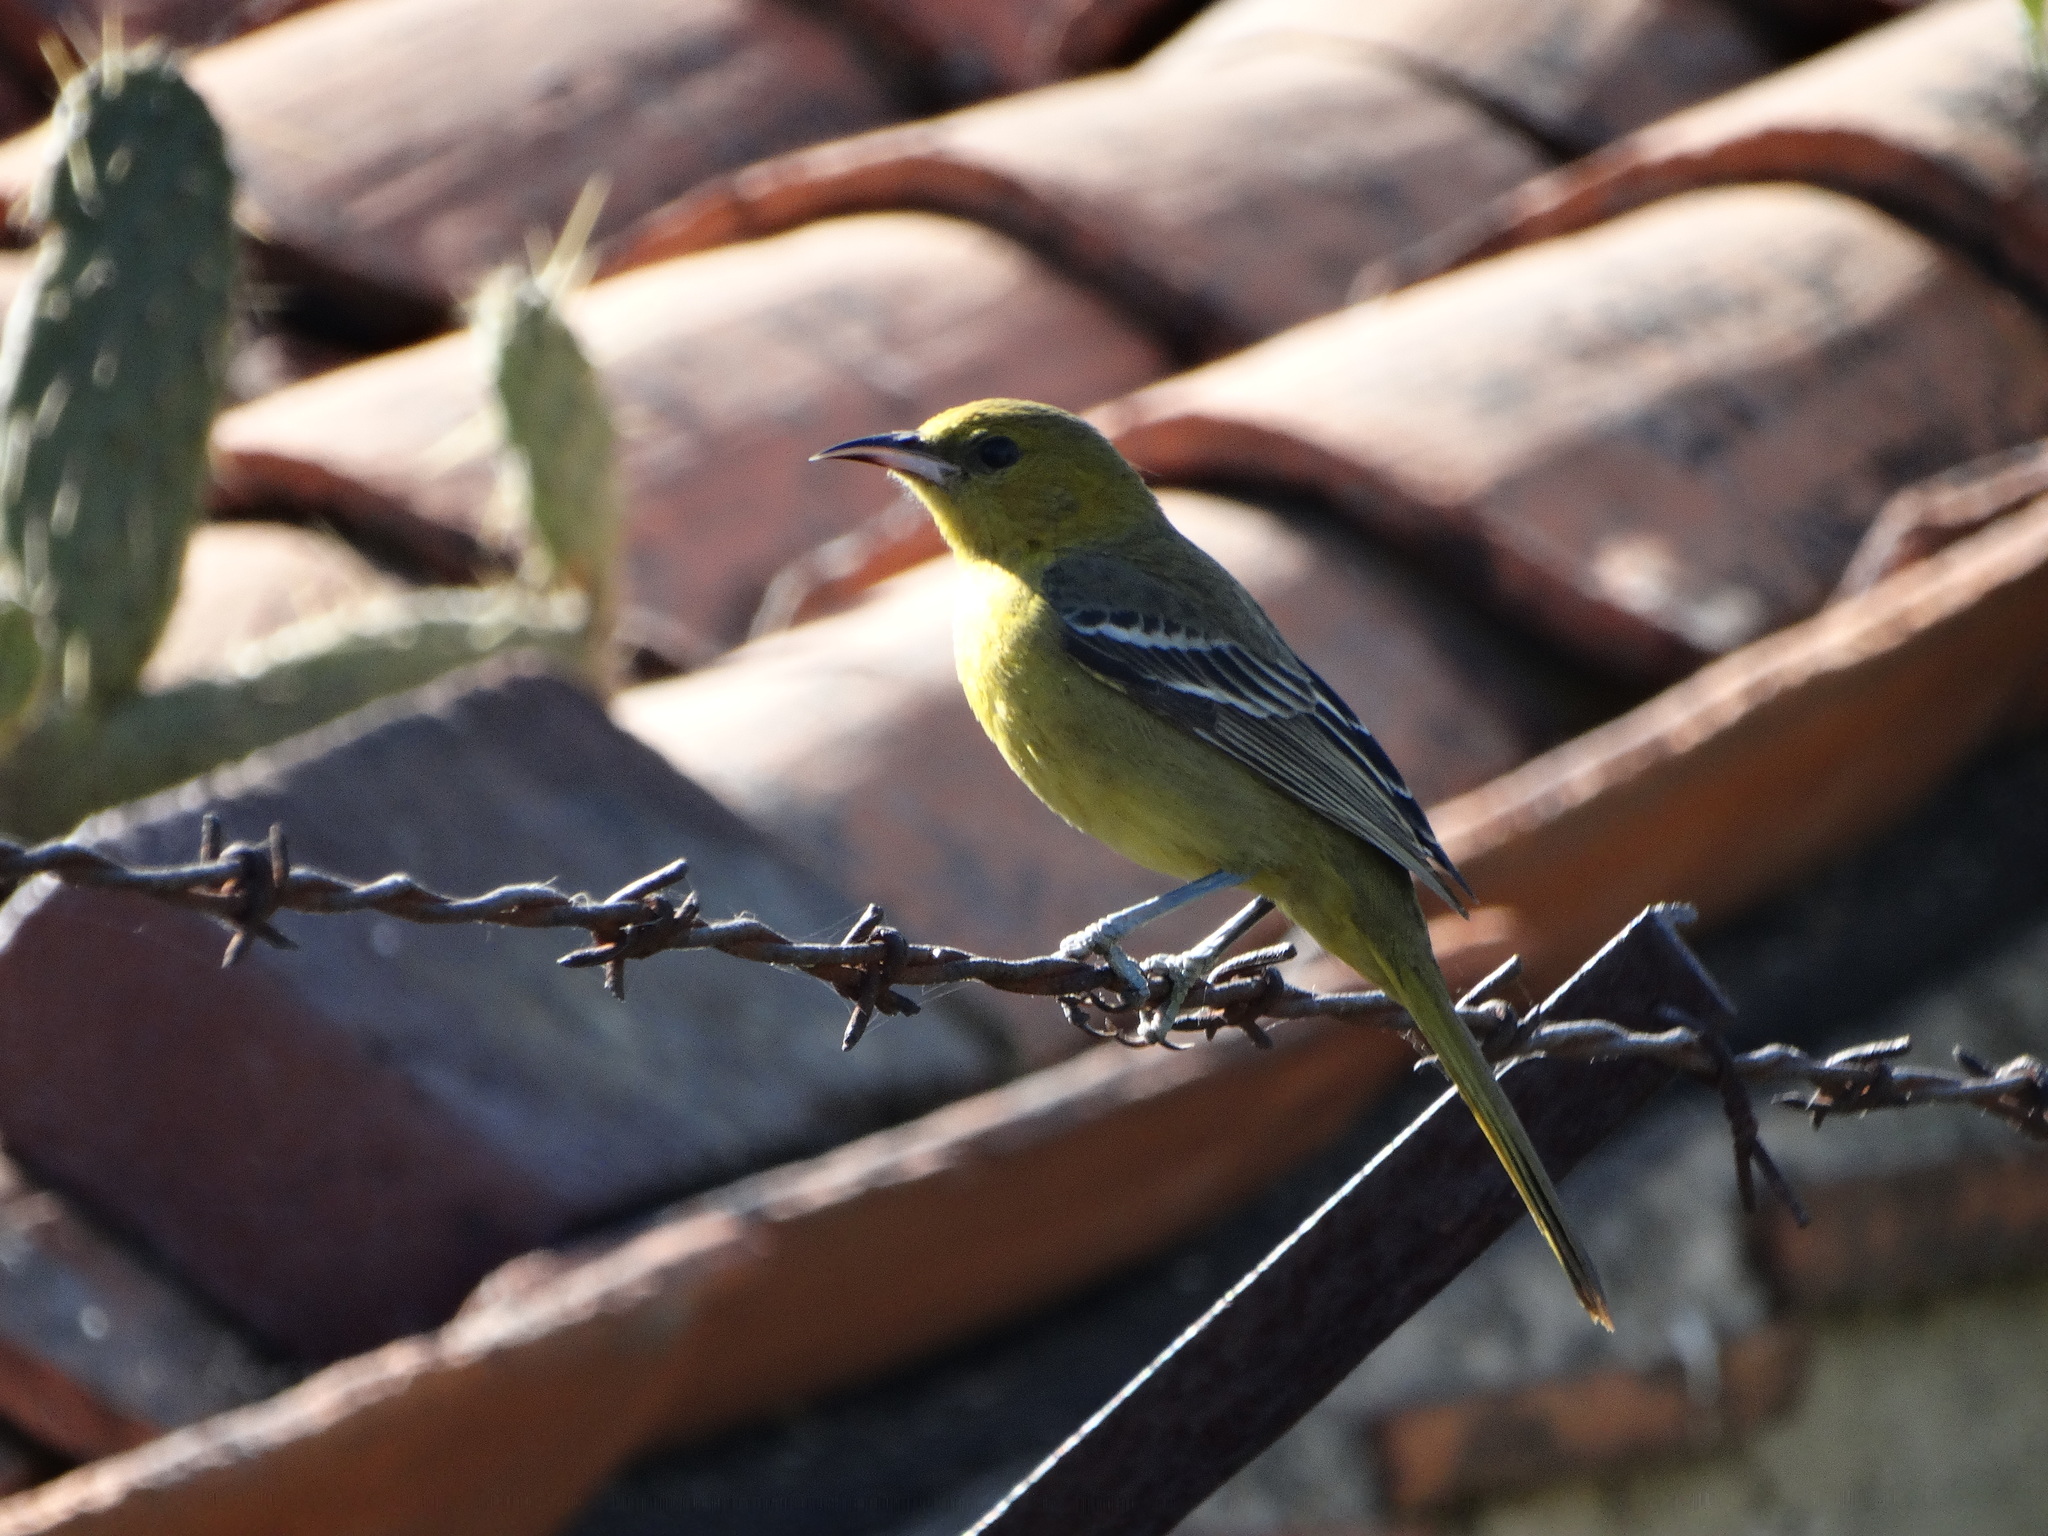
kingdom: Animalia
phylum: Chordata
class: Aves
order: Passeriformes
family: Icteridae
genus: Icterus
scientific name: Icterus cucullatus
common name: Hooded oriole
